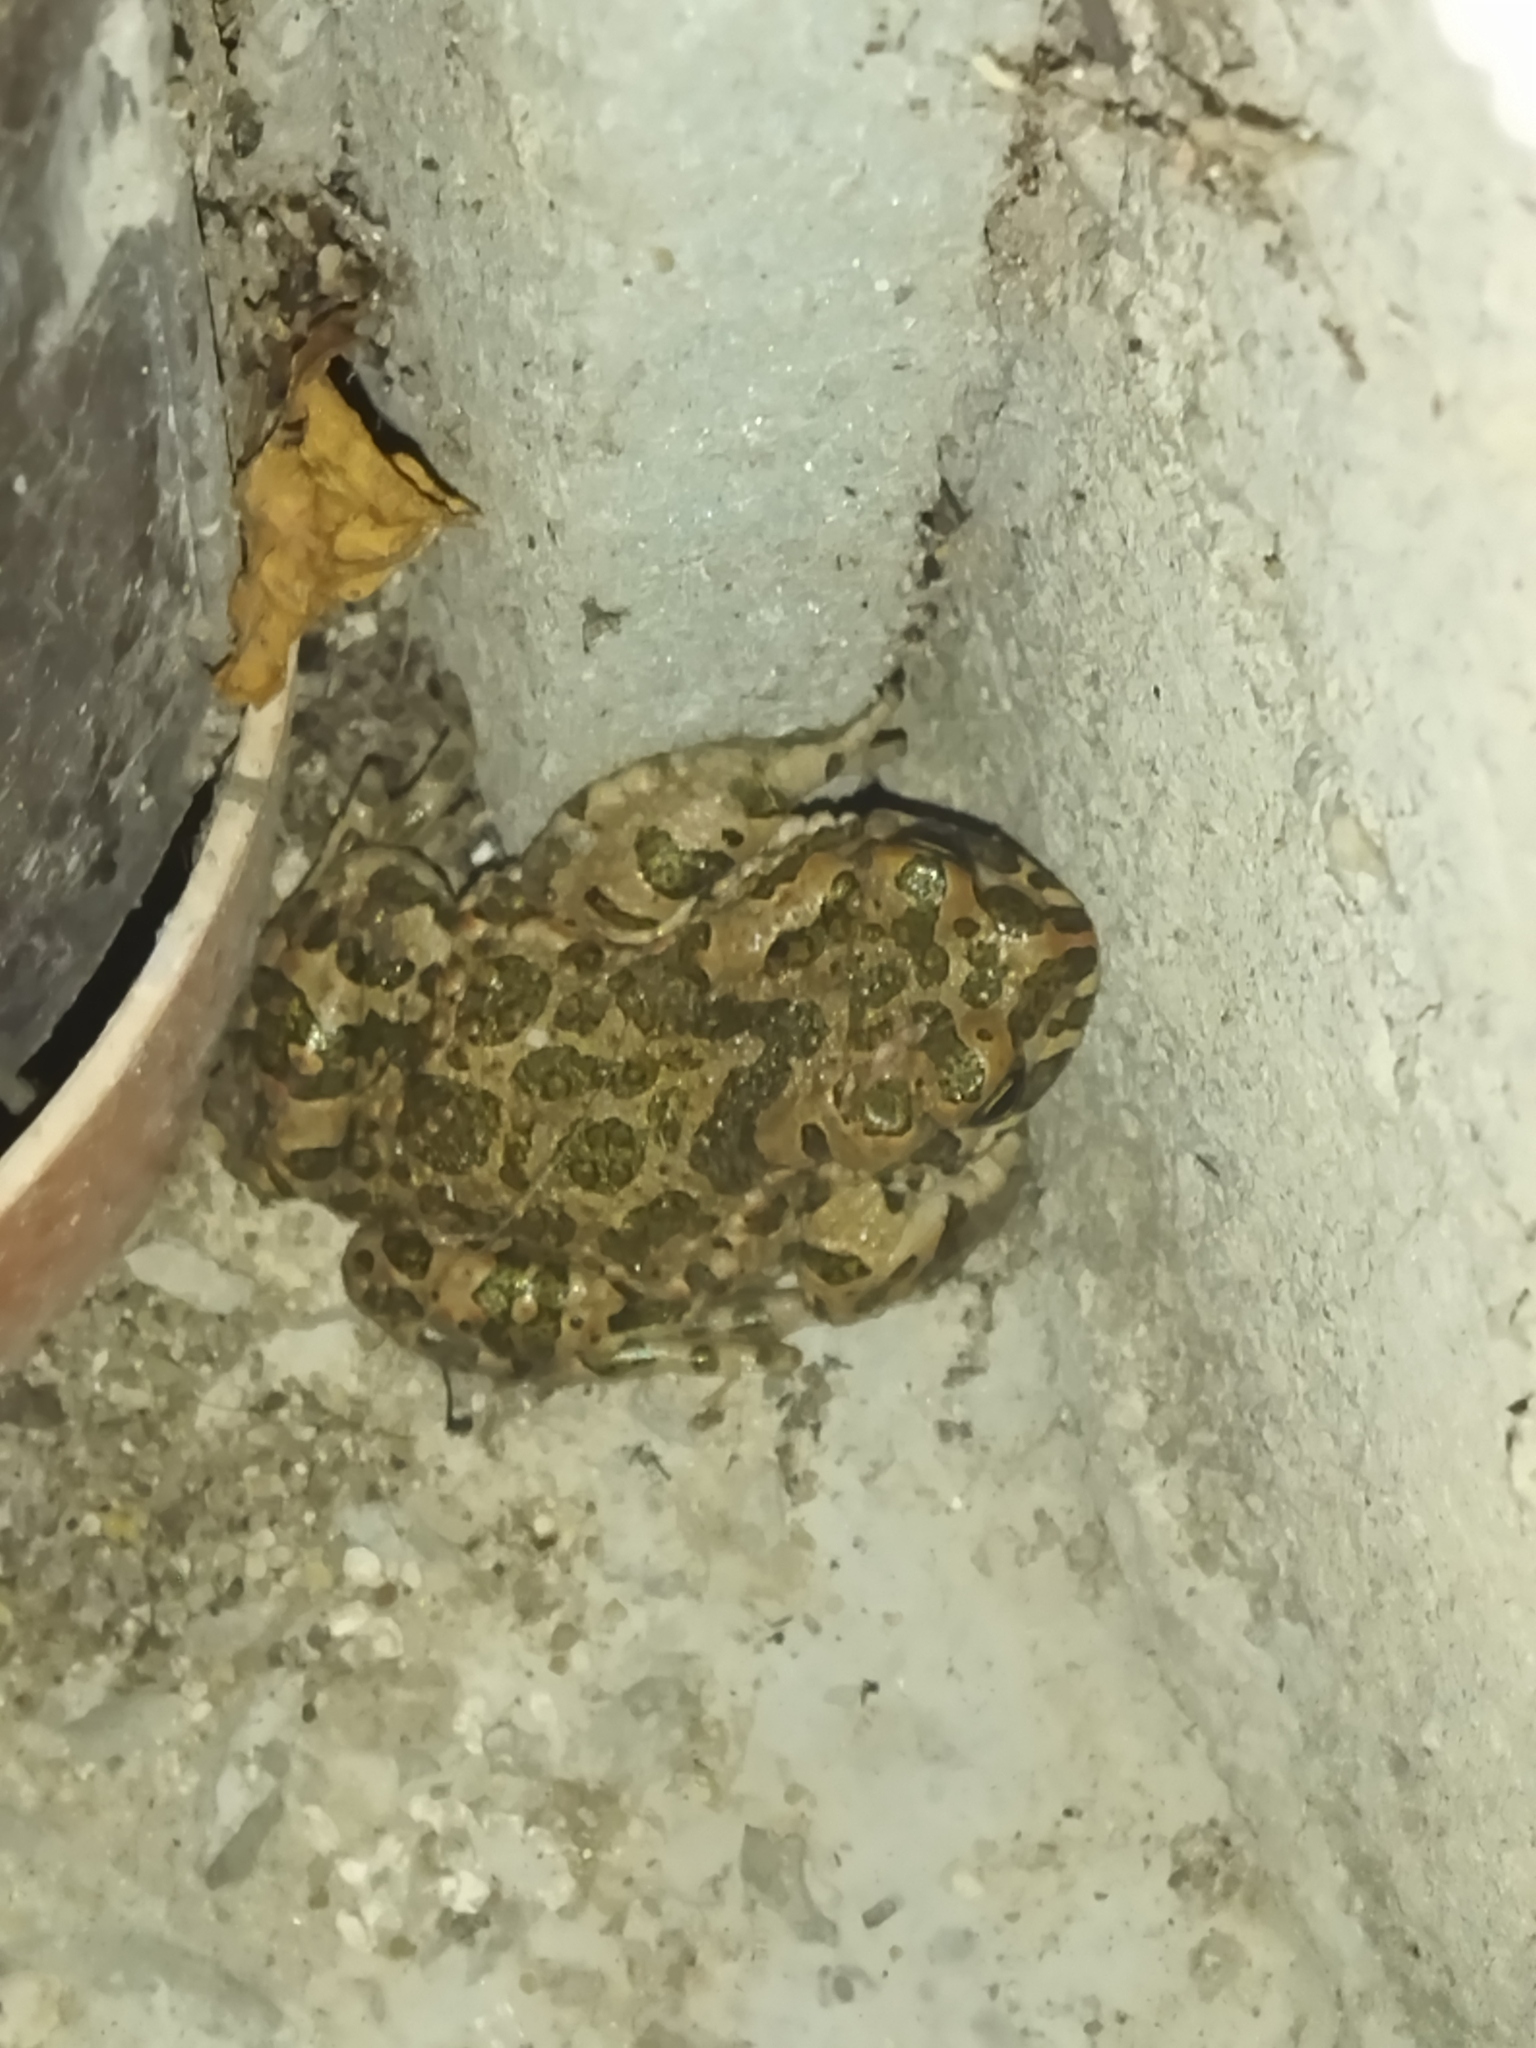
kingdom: Animalia
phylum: Chordata
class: Amphibia
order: Anura
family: Bufonidae
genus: Bufotes
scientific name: Bufotes viridis
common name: European green toad
